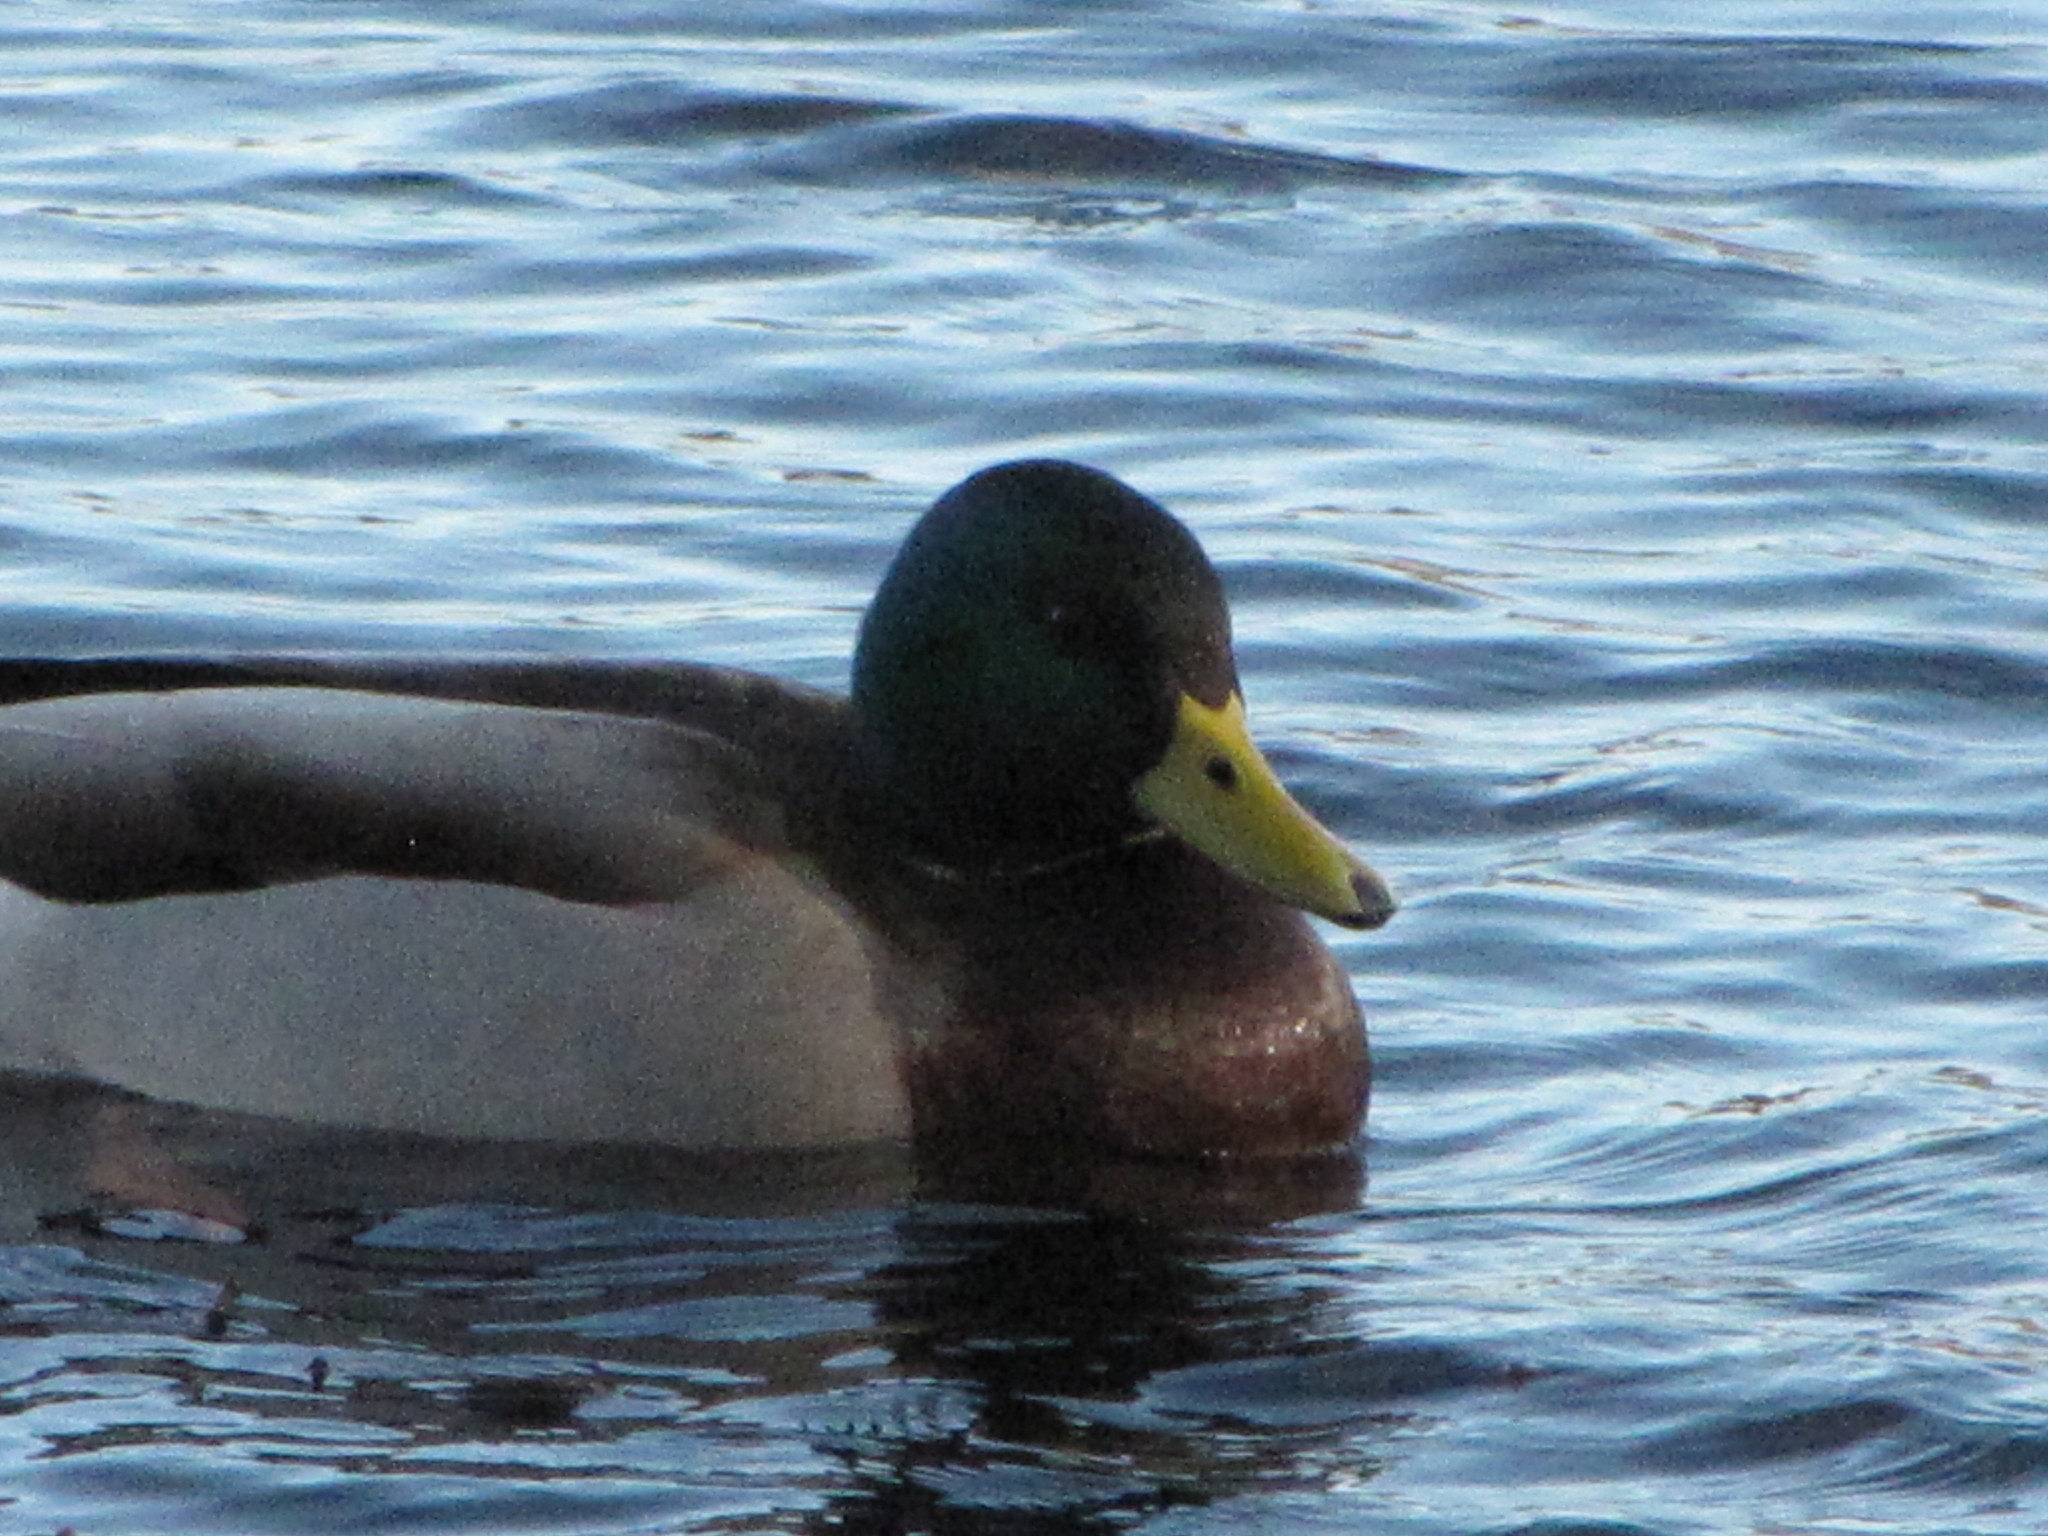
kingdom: Animalia
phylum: Chordata
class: Aves
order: Anseriformes
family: Anatidae
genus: Anas
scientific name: Anas platyrhynchos
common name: Mallard
